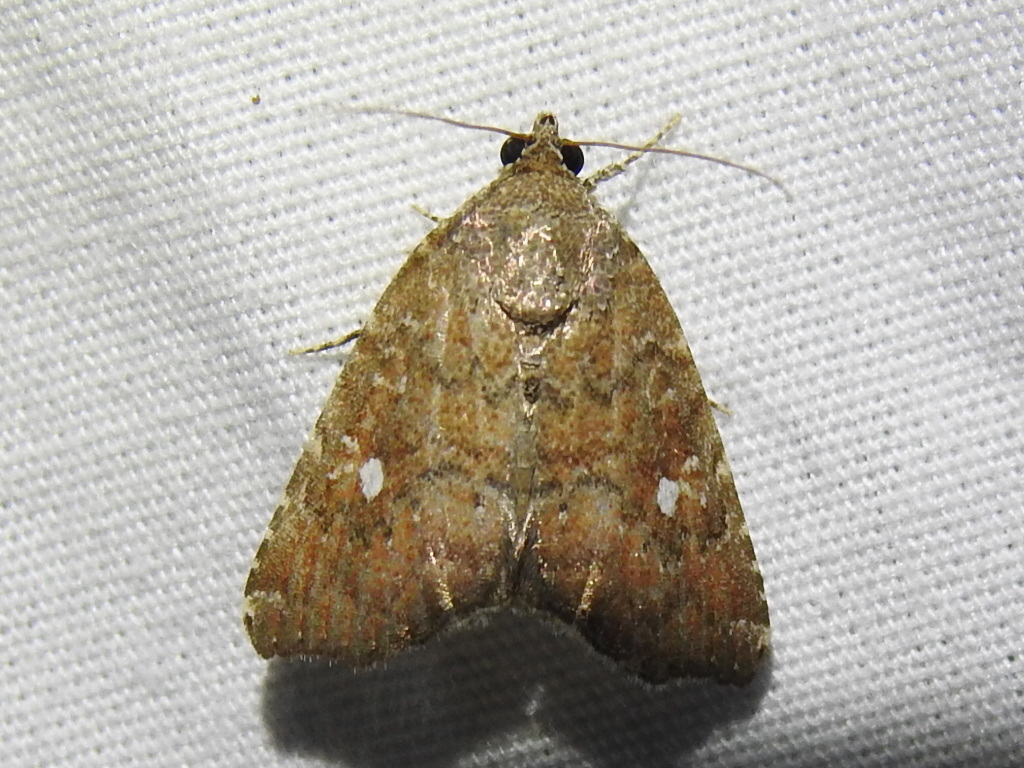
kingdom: Animalia
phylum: Arthropoda
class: Insecta
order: Lepidoptera
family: Noctuidae
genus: Amyna
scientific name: Amyna bullula
